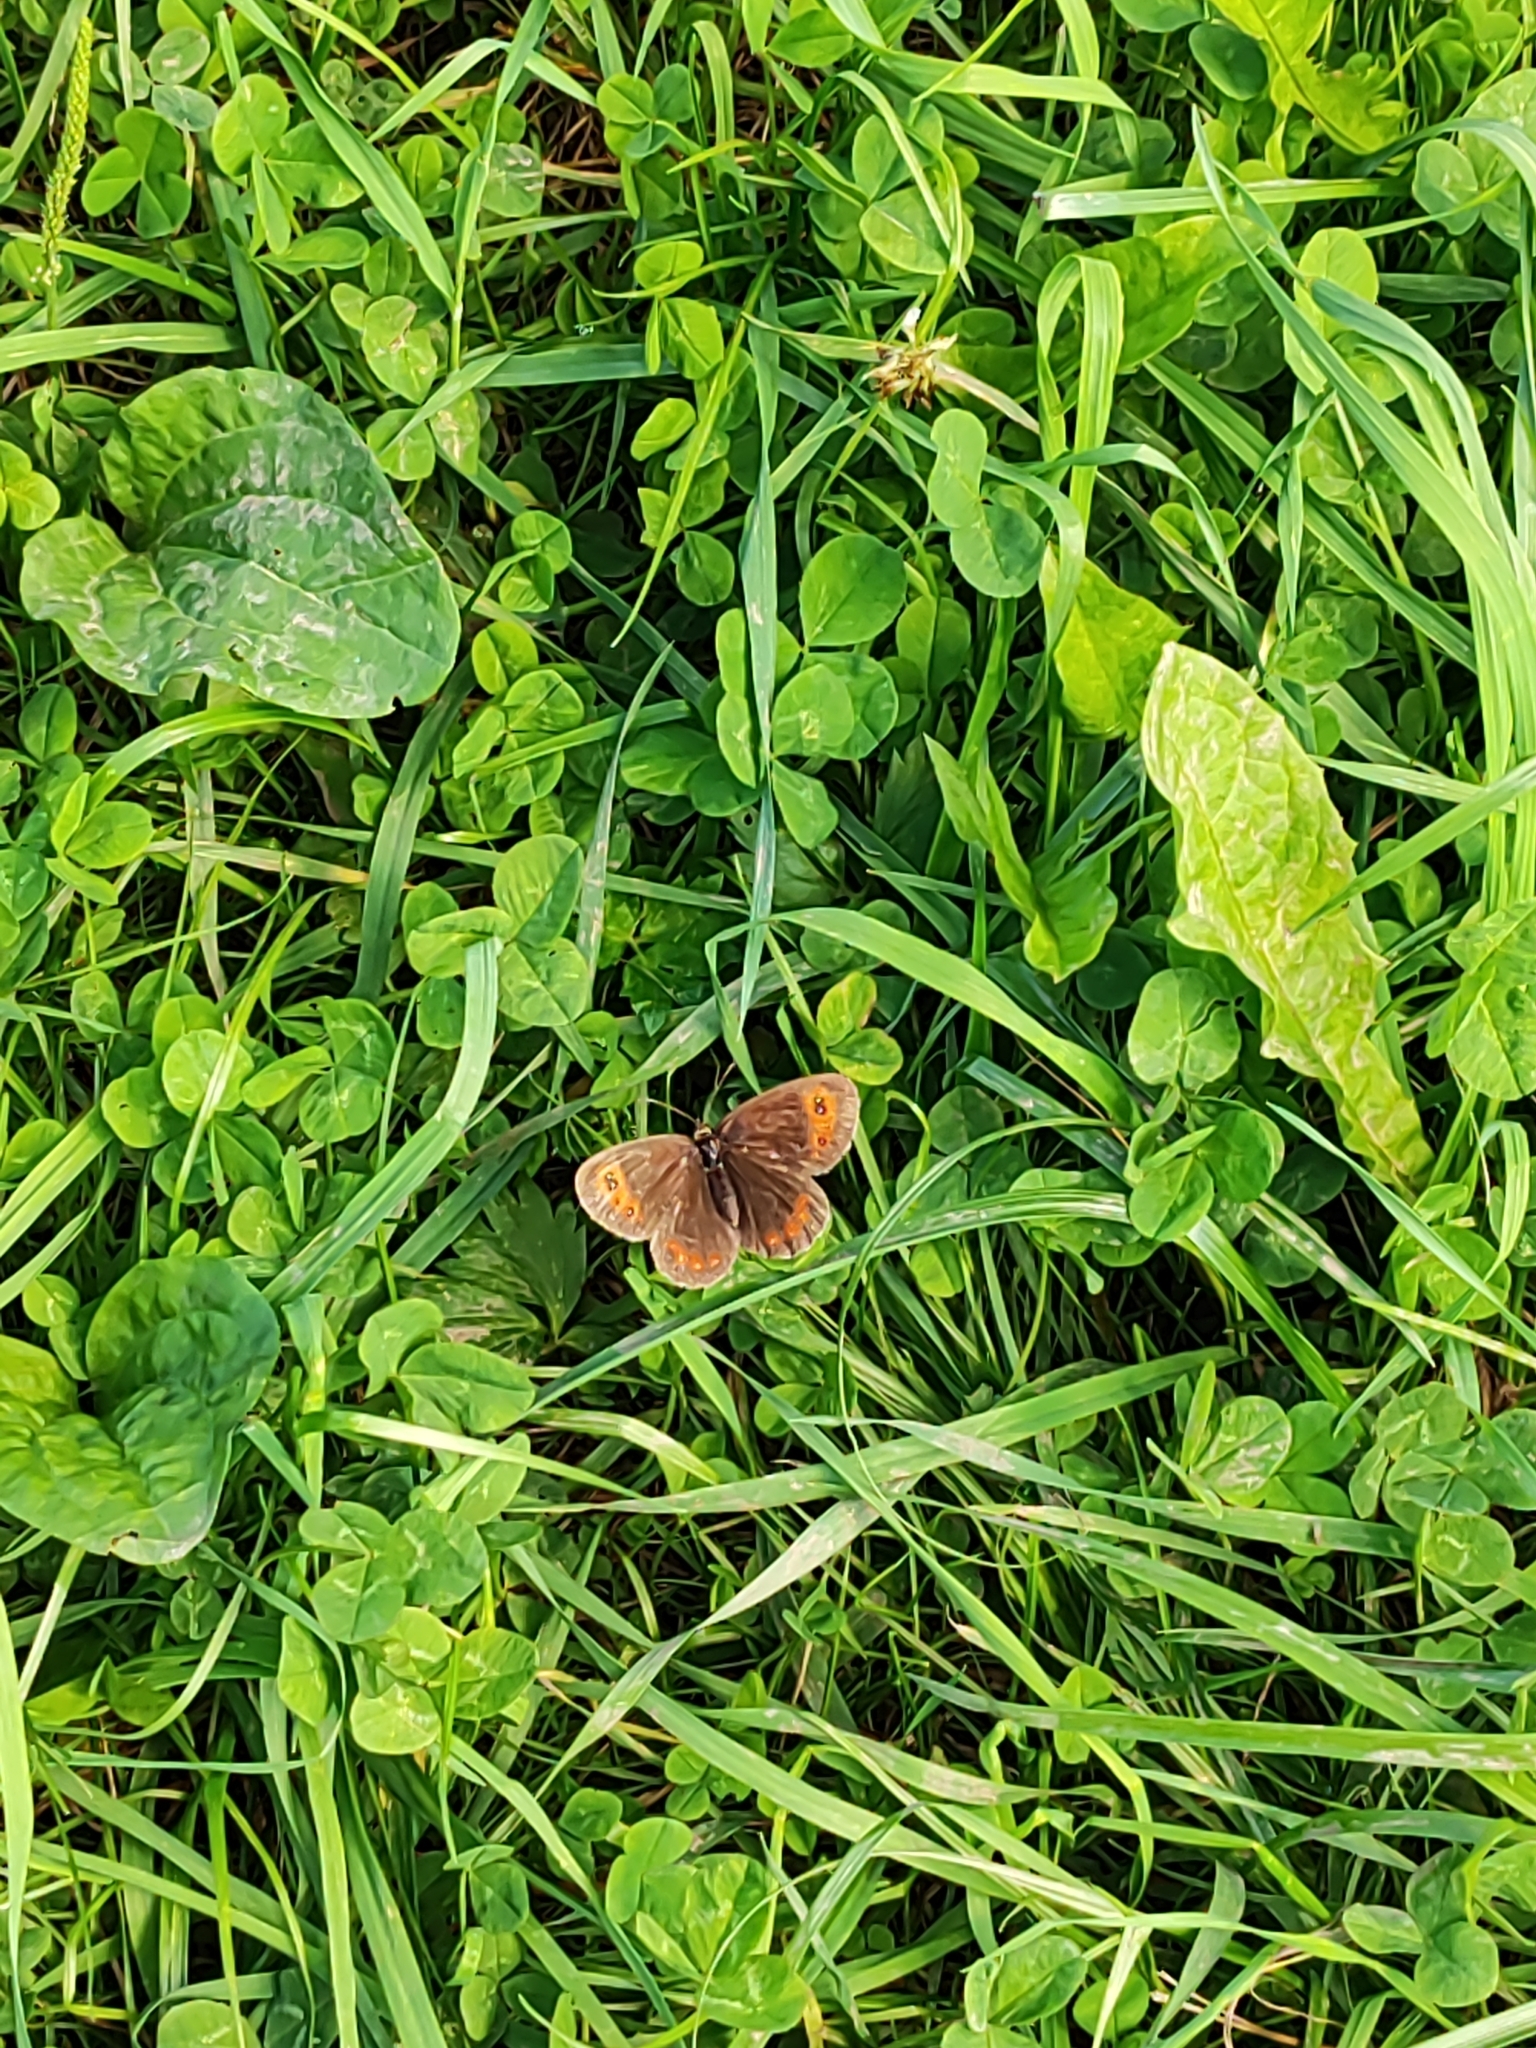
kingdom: Animalia
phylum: Arthropoda
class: Insecta
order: Lepidoptera
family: Nymphalidae
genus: Erebia
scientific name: Erebia aethiops
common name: Scotch argus
